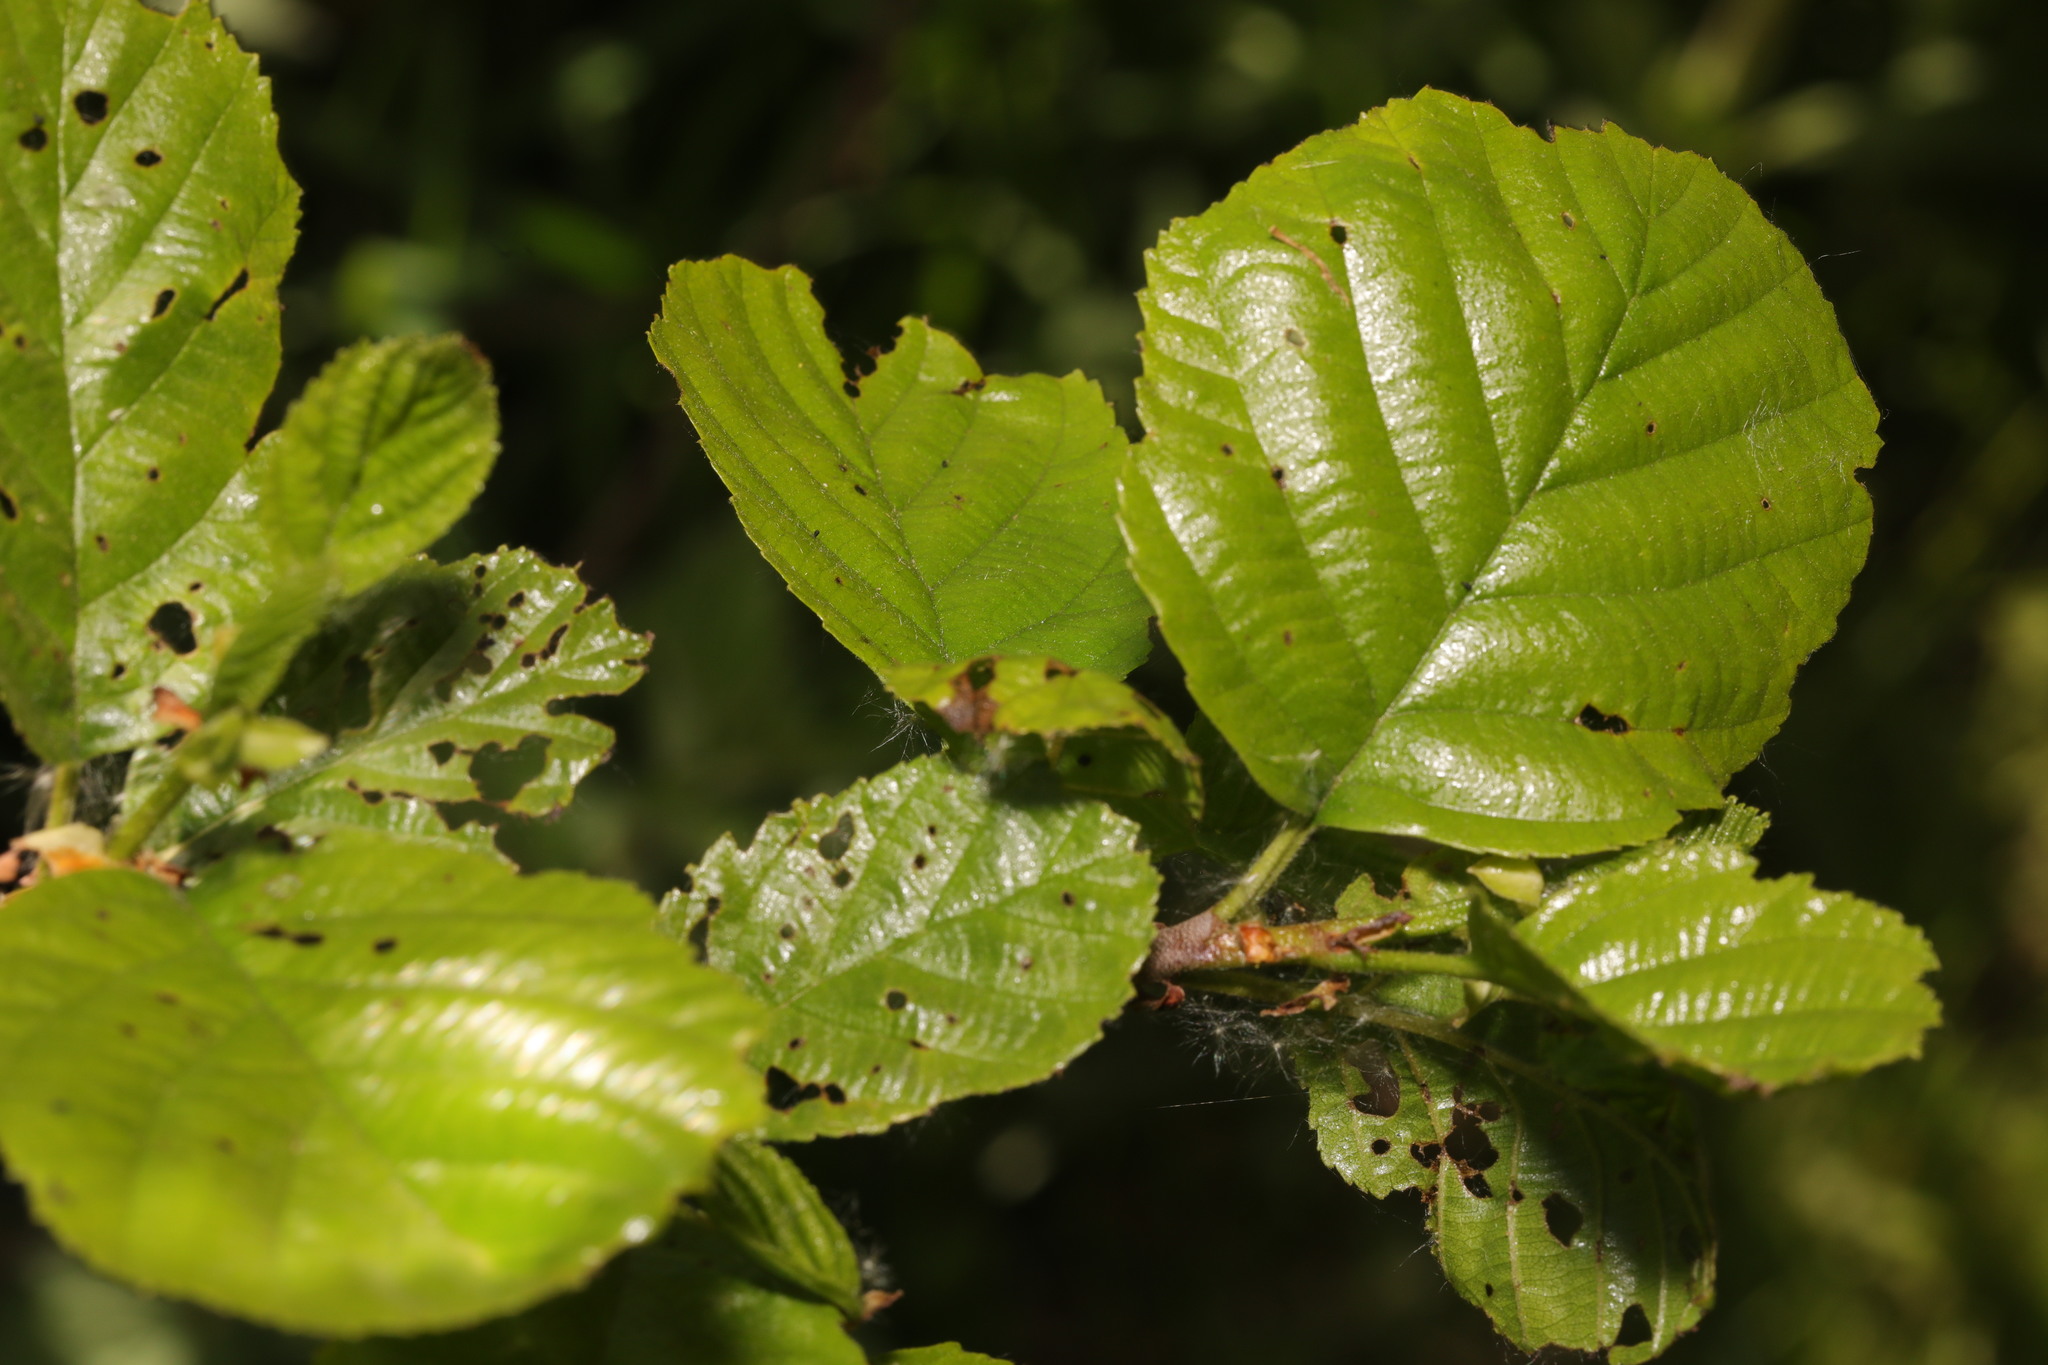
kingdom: Plantae
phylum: Tracheophyta
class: Magnoliopsida
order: Fagales
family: Betulaceae
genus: Alnus
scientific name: Alnus glutinosa
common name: Black alder
